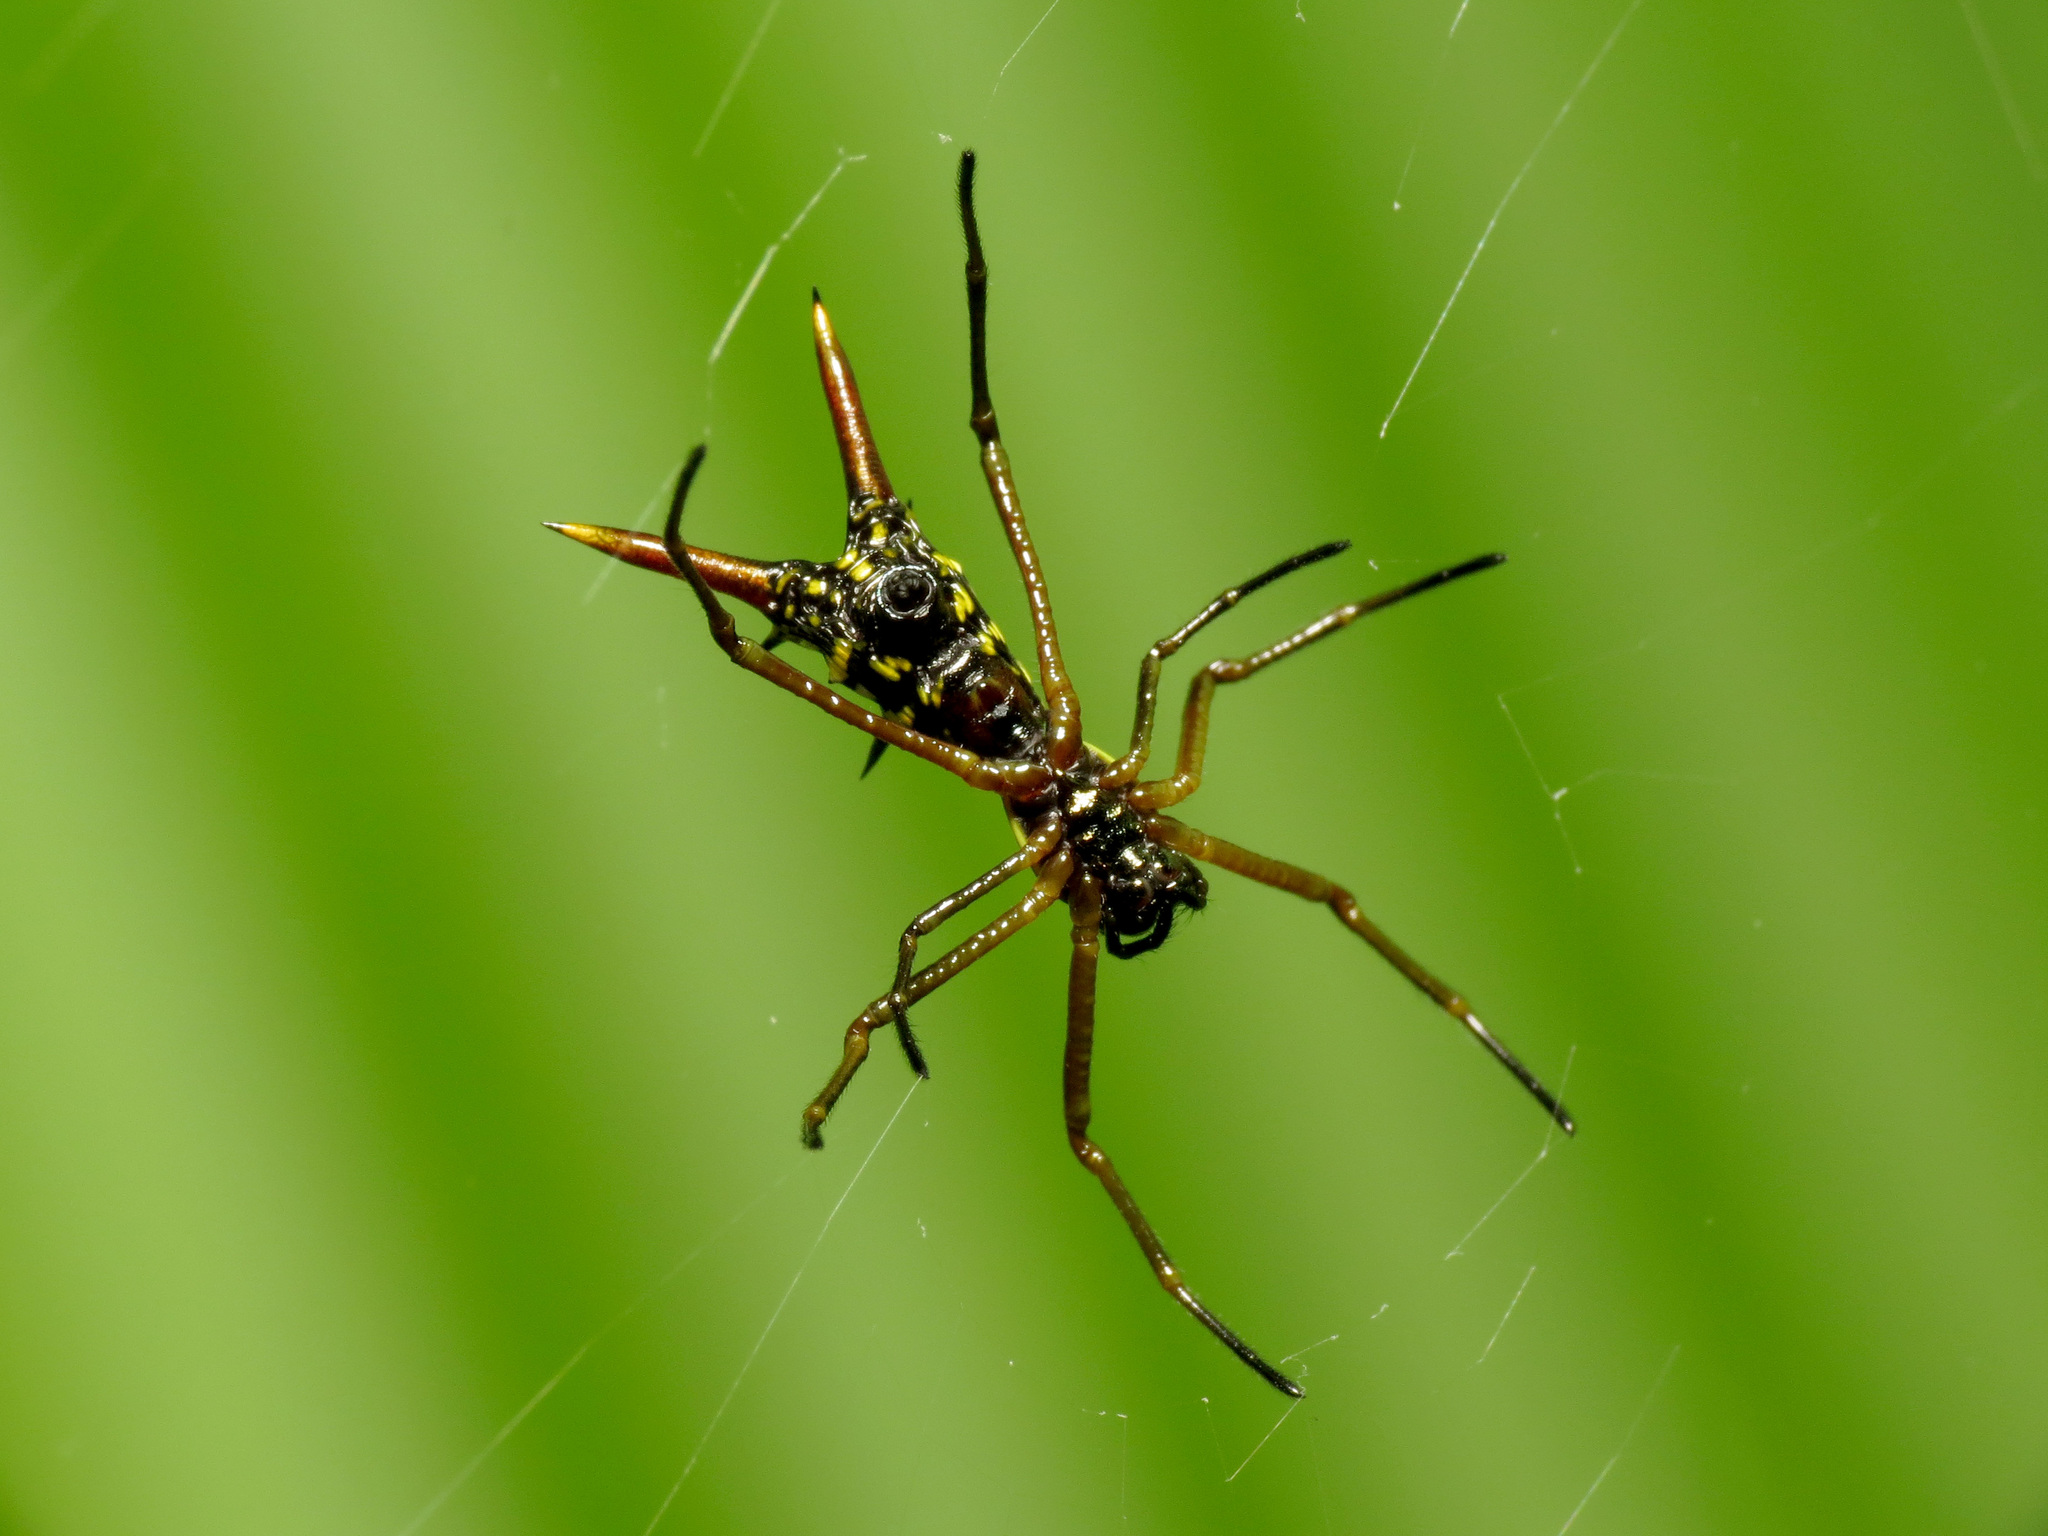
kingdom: Animalia
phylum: Arthropoda
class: Arachnida
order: Araneae
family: Araneidae
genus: Micrathena
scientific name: Micrathena brevipes
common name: Orb weavers
